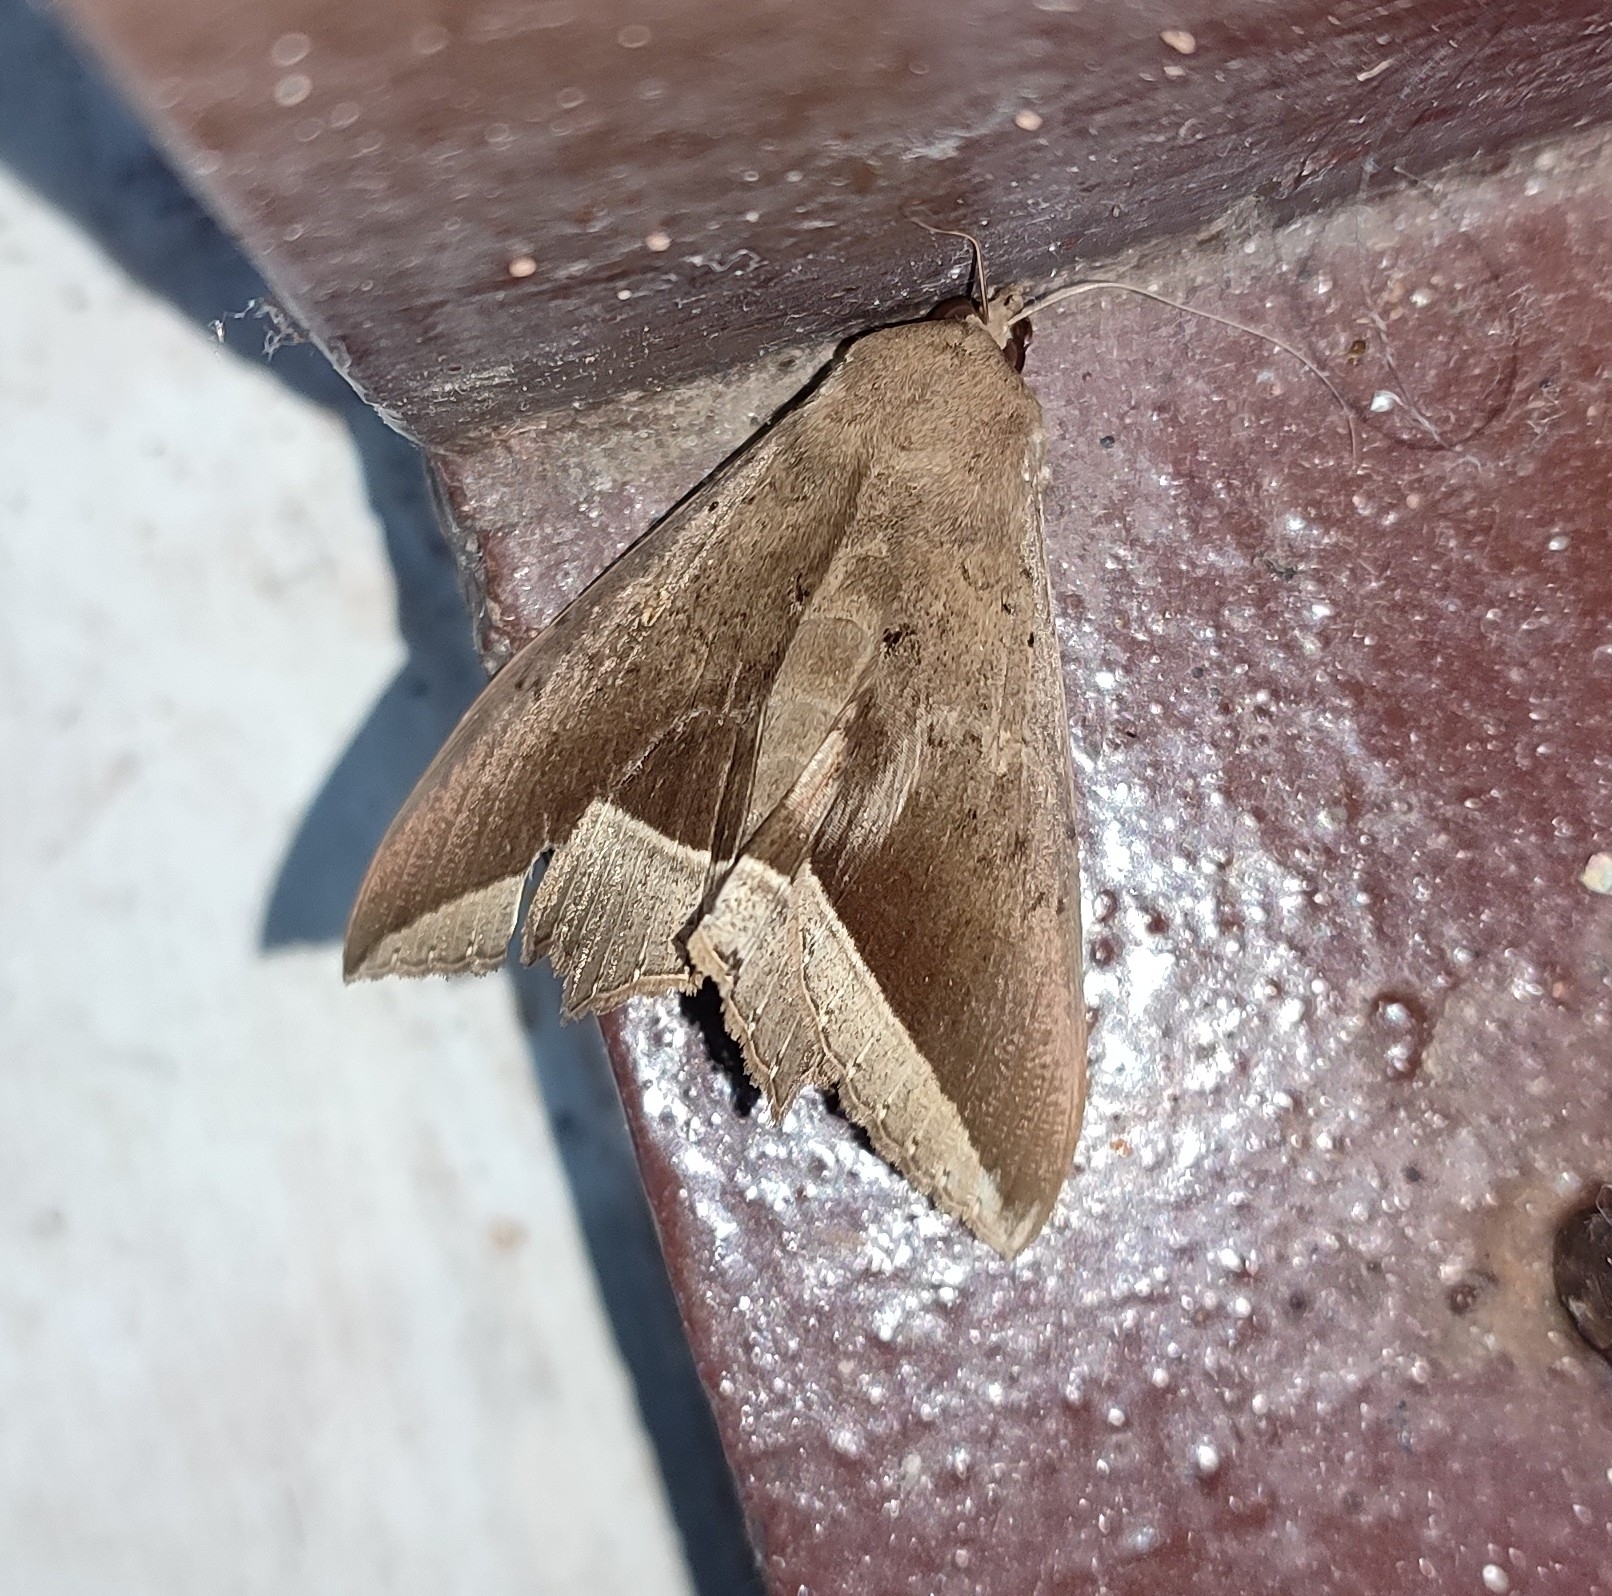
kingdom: Animalia
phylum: Arthropoda
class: Insecta
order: Lepidoptera
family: Erebidae
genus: Hulodes
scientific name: Hulodes caranea
